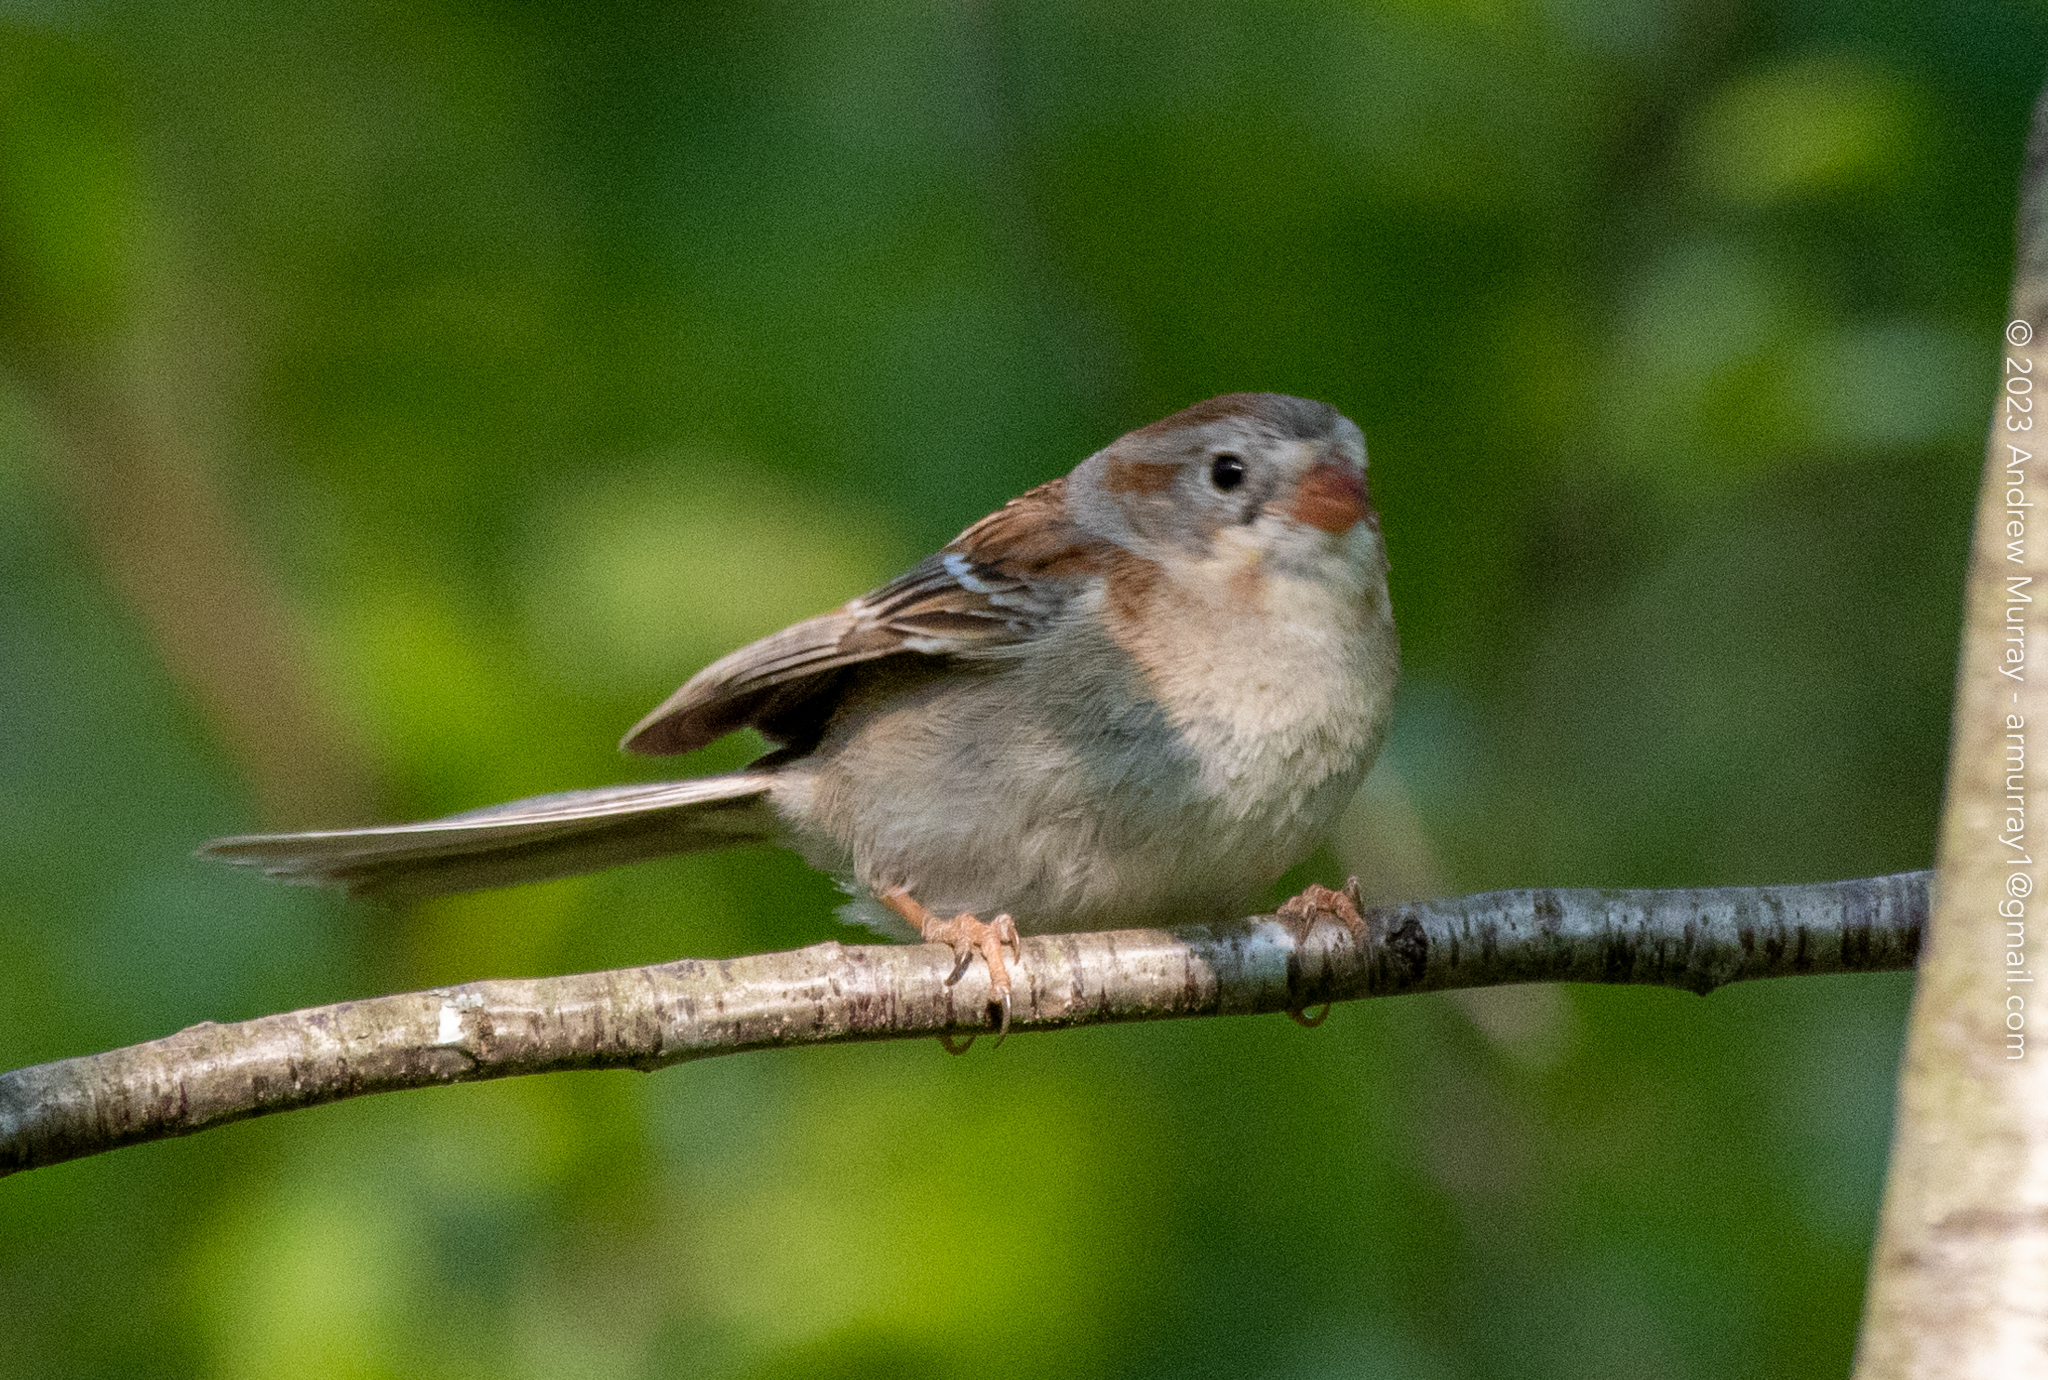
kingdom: Animalia
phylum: Chordata
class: Aves
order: Passeriformes
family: Passerellidae
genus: Spizella
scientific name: Spizella pusilla
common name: Field sparrow
